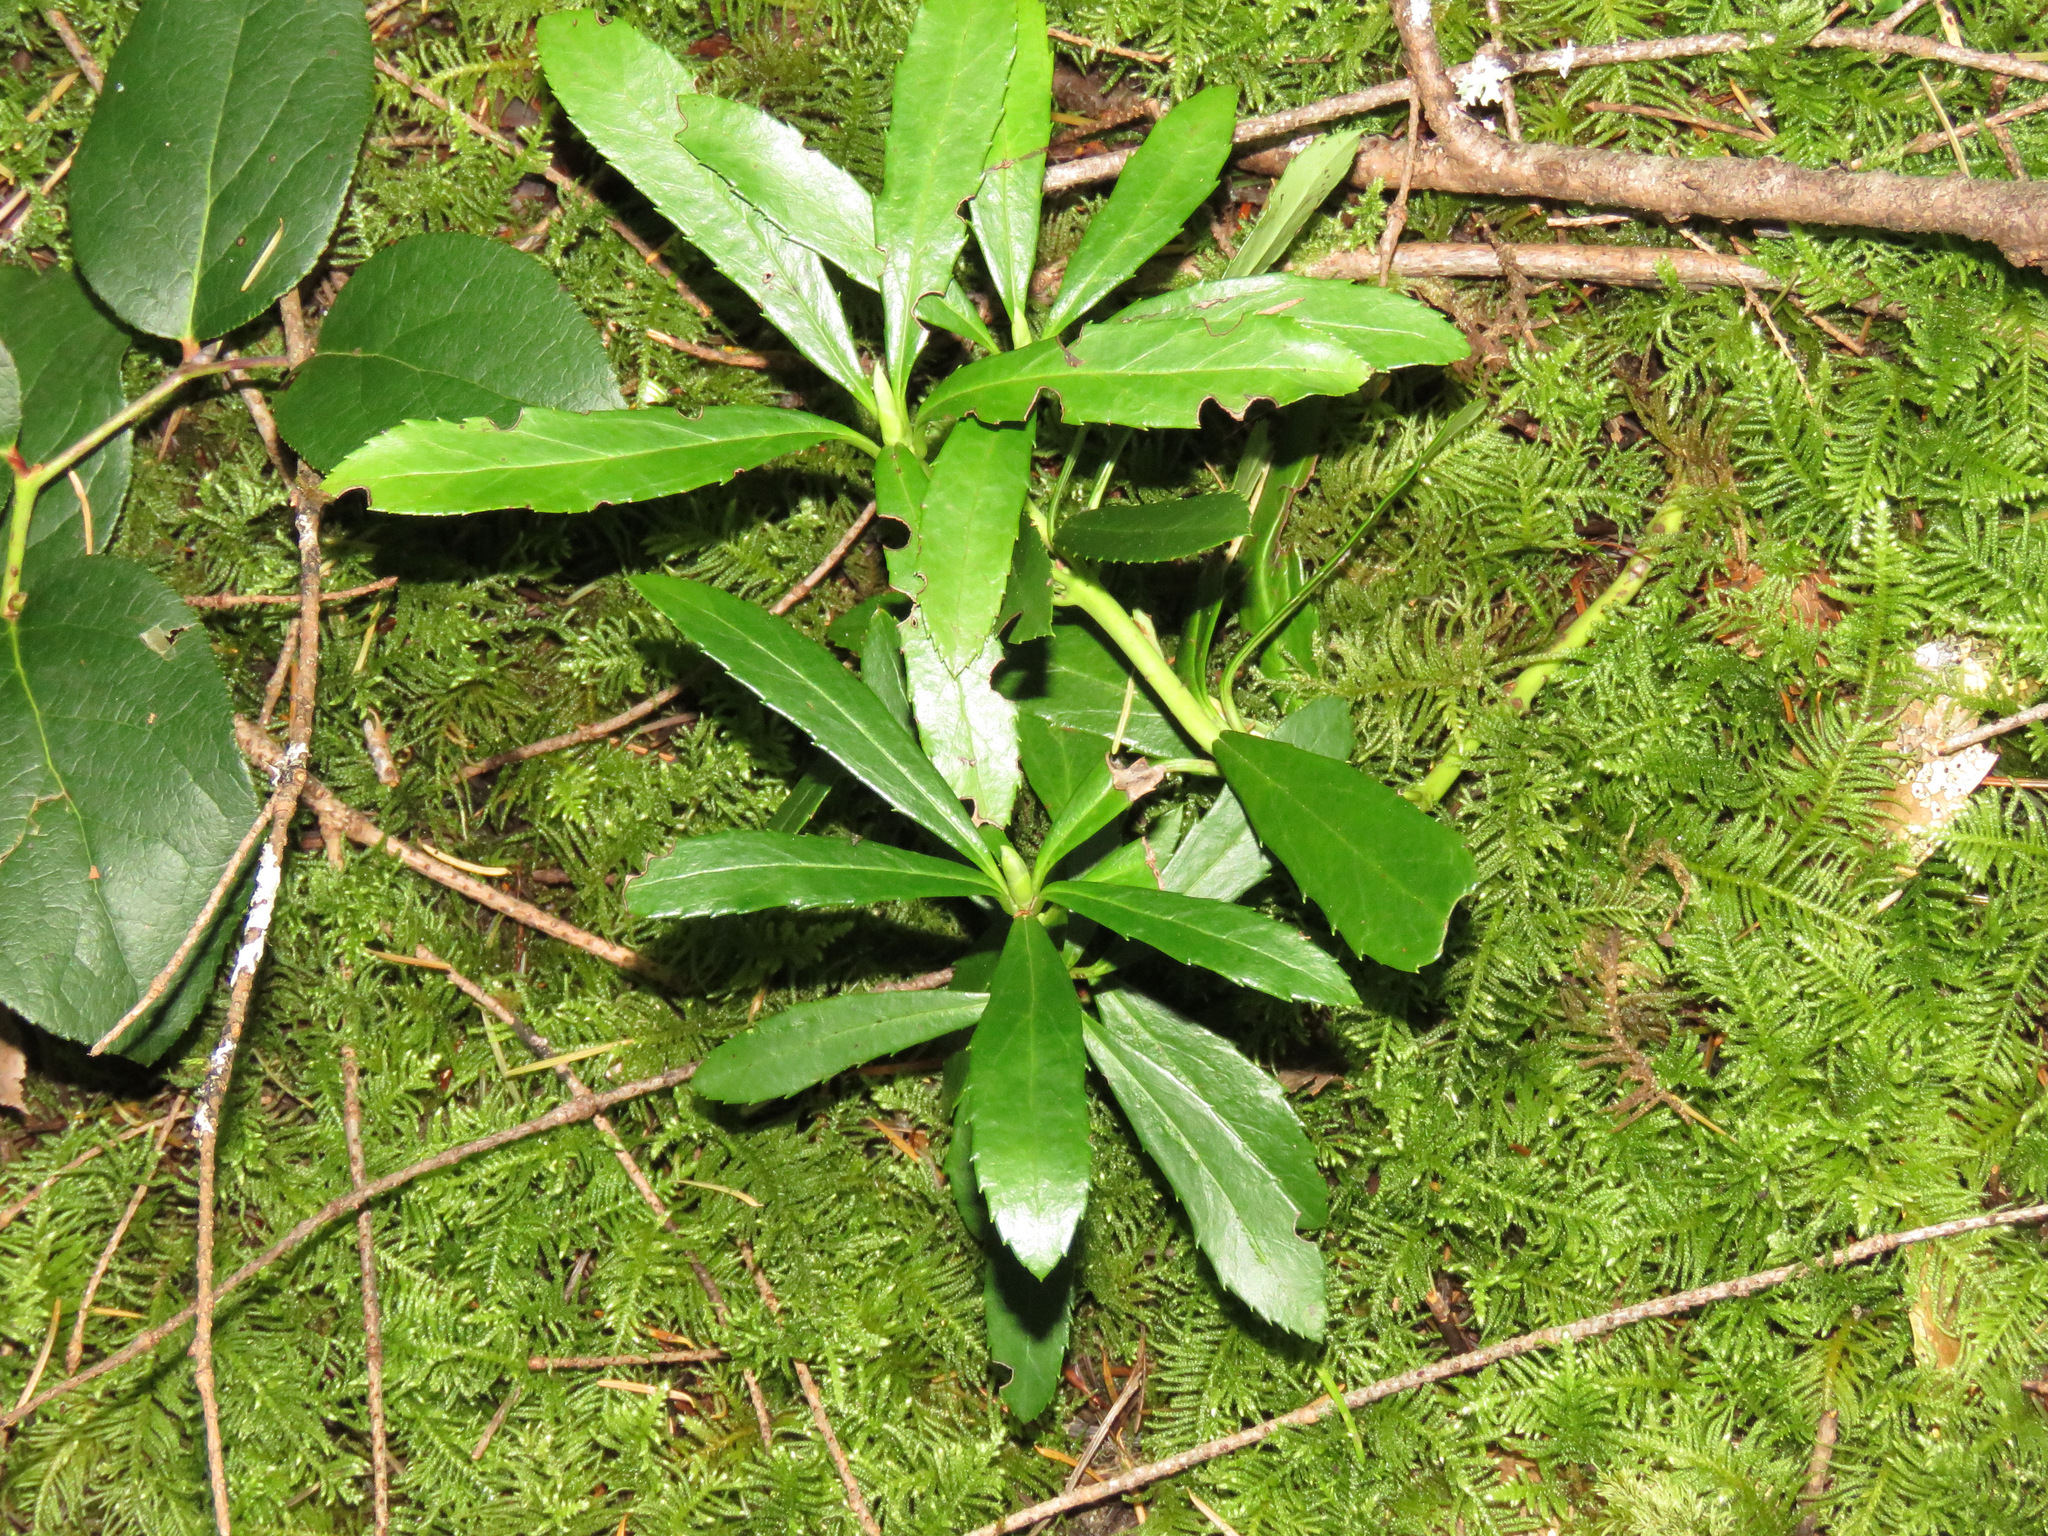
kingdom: Plantae
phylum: Tracheophyta
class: Magnoliopsida
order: Ericales
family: Ericaceae
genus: Chimaphila
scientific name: Chimaphila umbellata
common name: Pipsissewa
